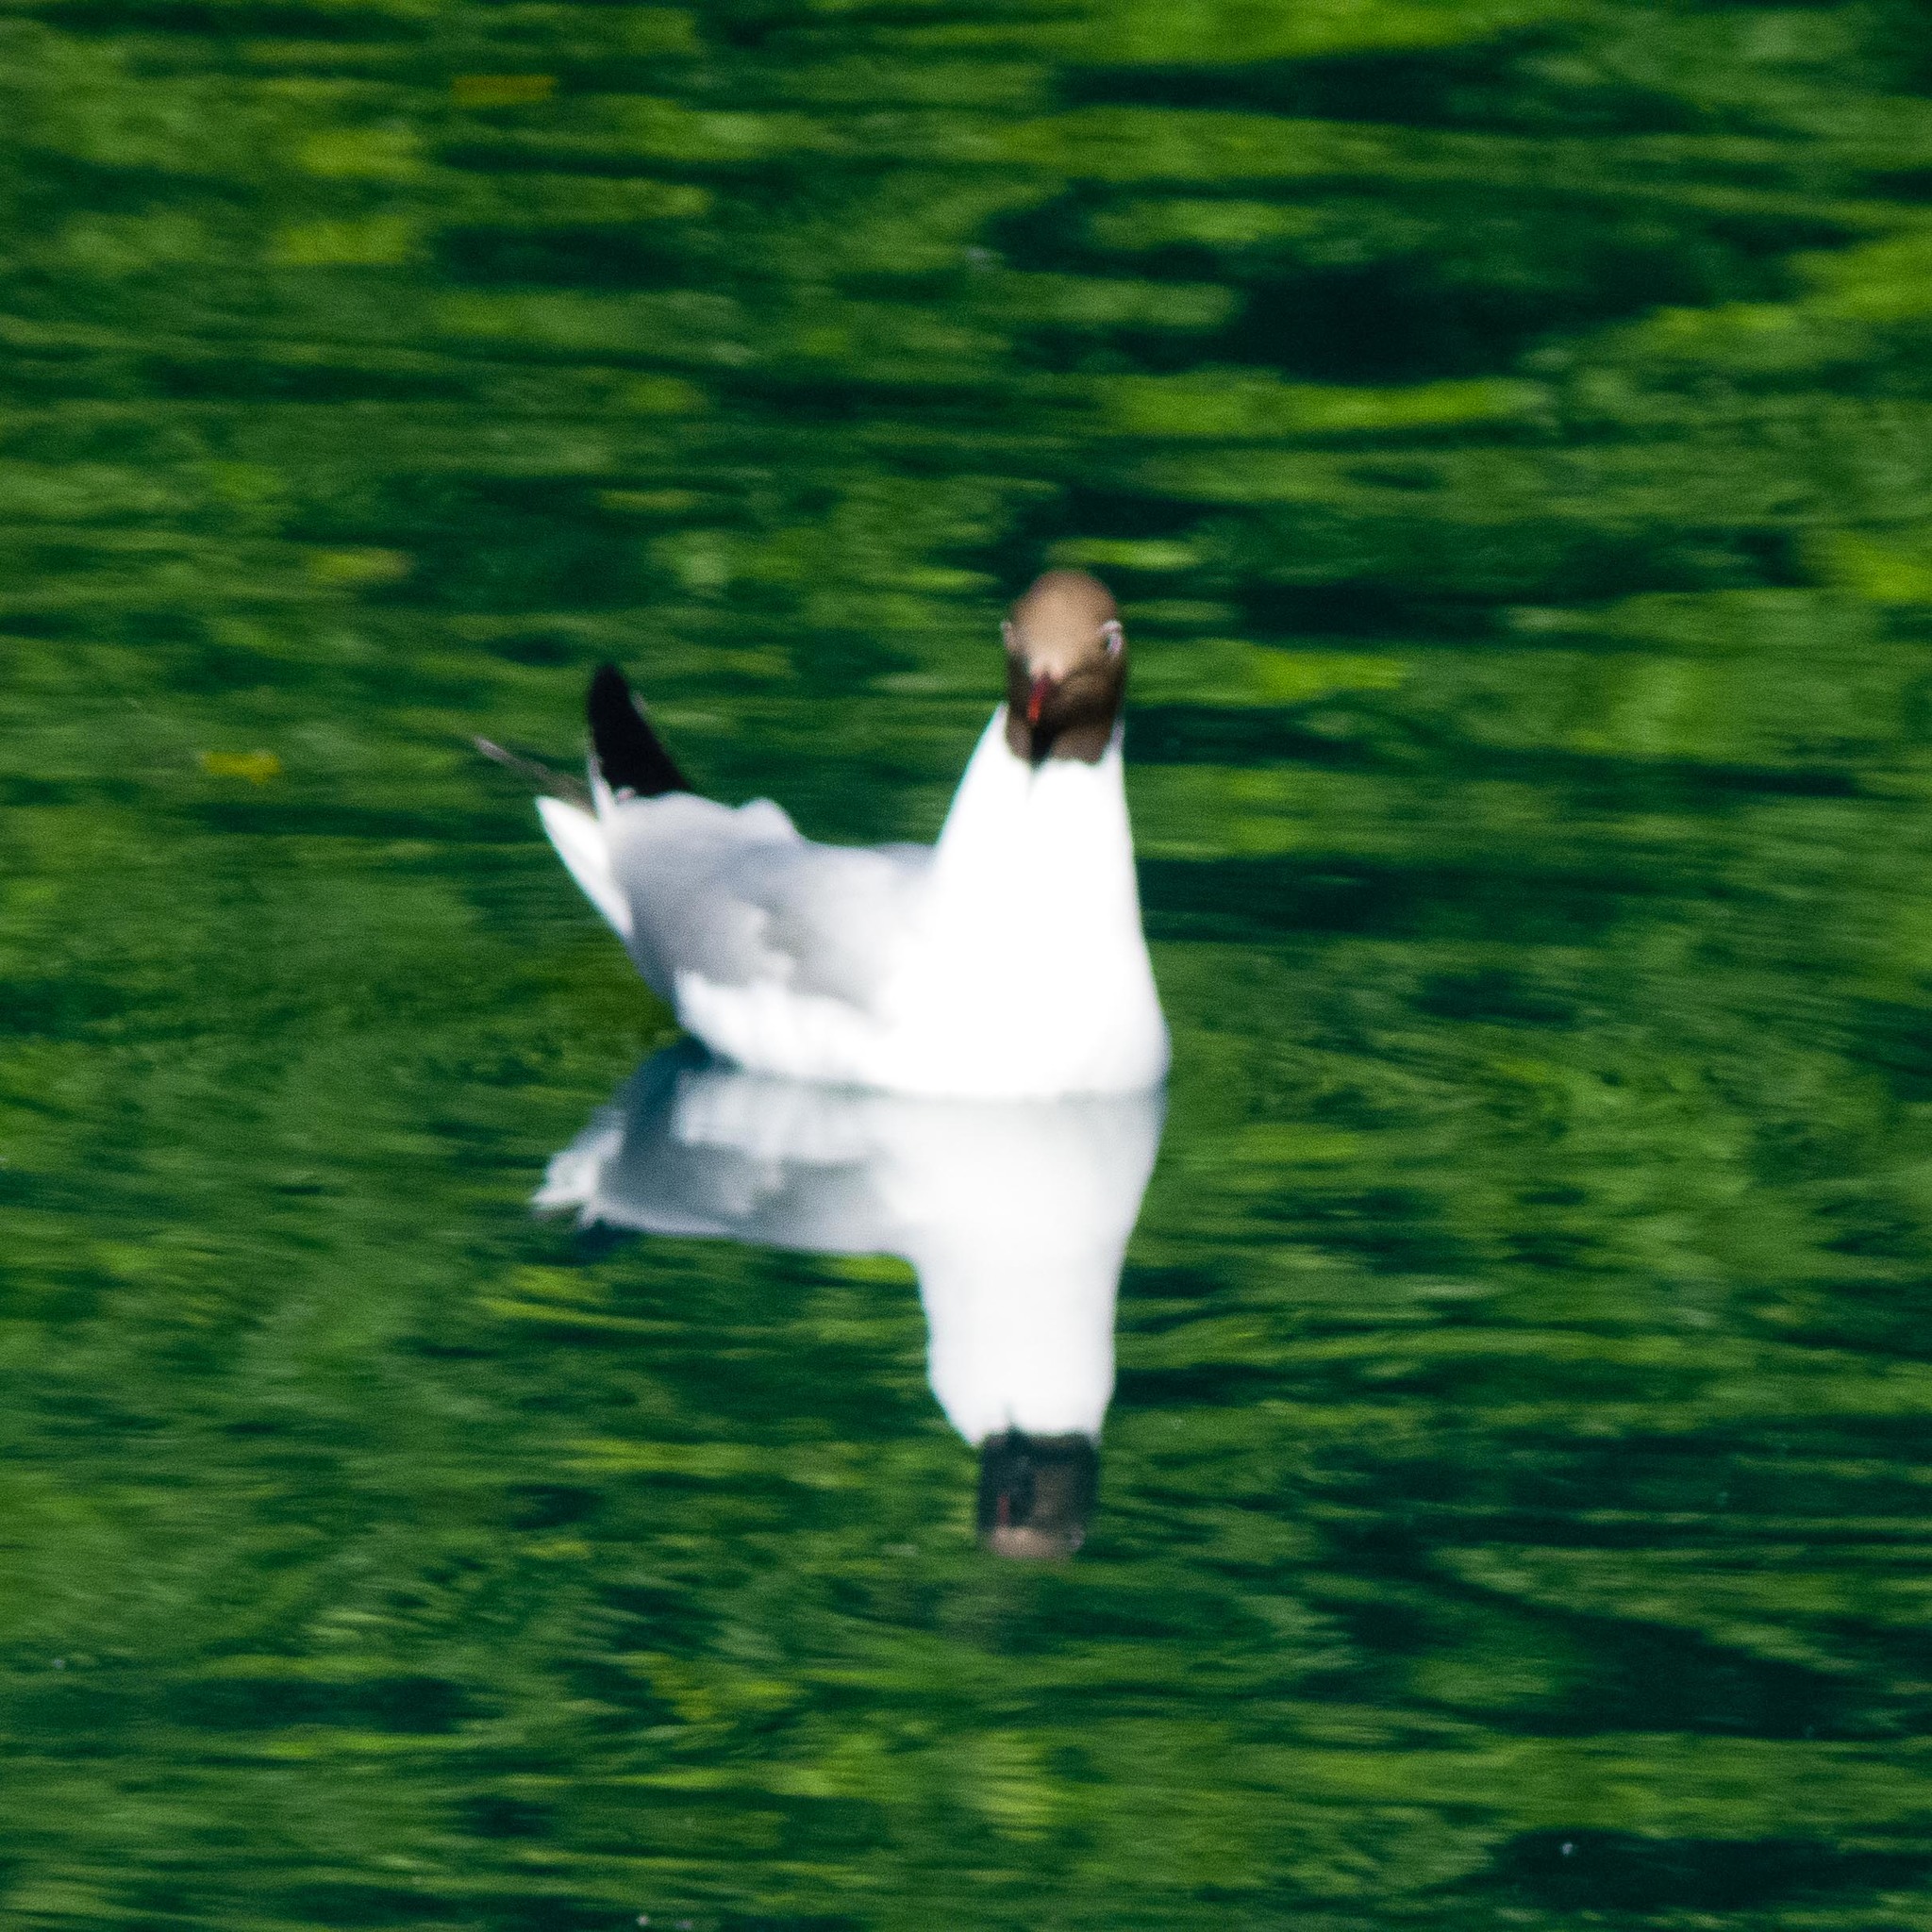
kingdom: Animalia
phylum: Chordata
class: Aves
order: Charadriiformes
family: Laridae
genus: Chroicocephalus
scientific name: Chroicocephalus ridibundus
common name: Black-headed gull
